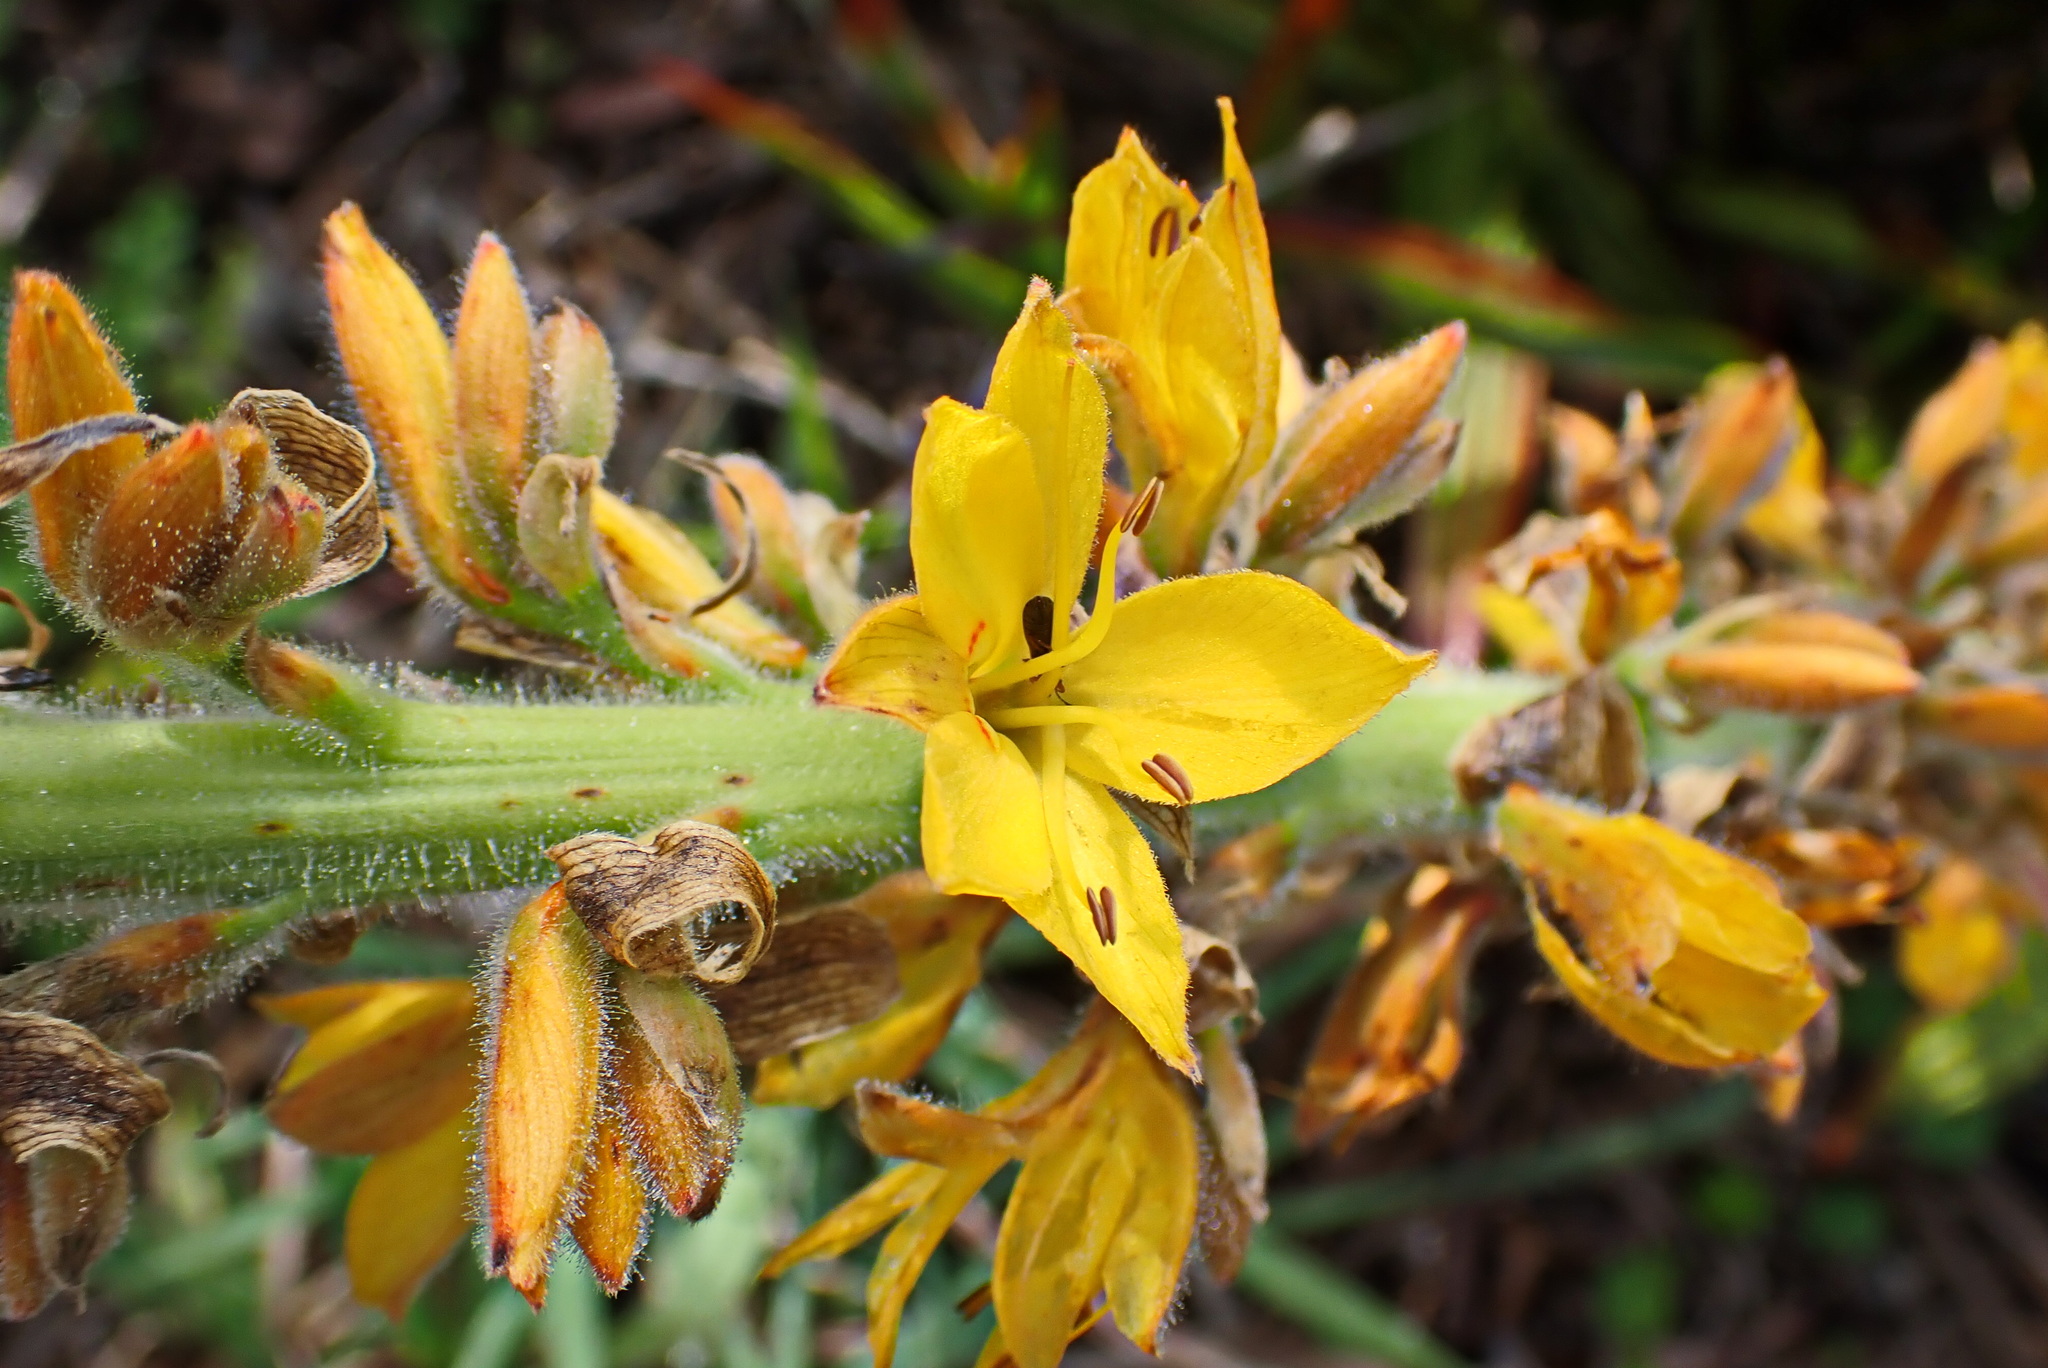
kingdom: Plantae
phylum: Tracheophyta
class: Liliopsida
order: Commelinales
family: Haemodoraceae
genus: Wachendorfia
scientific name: Wachendorfia thyrsiflora
